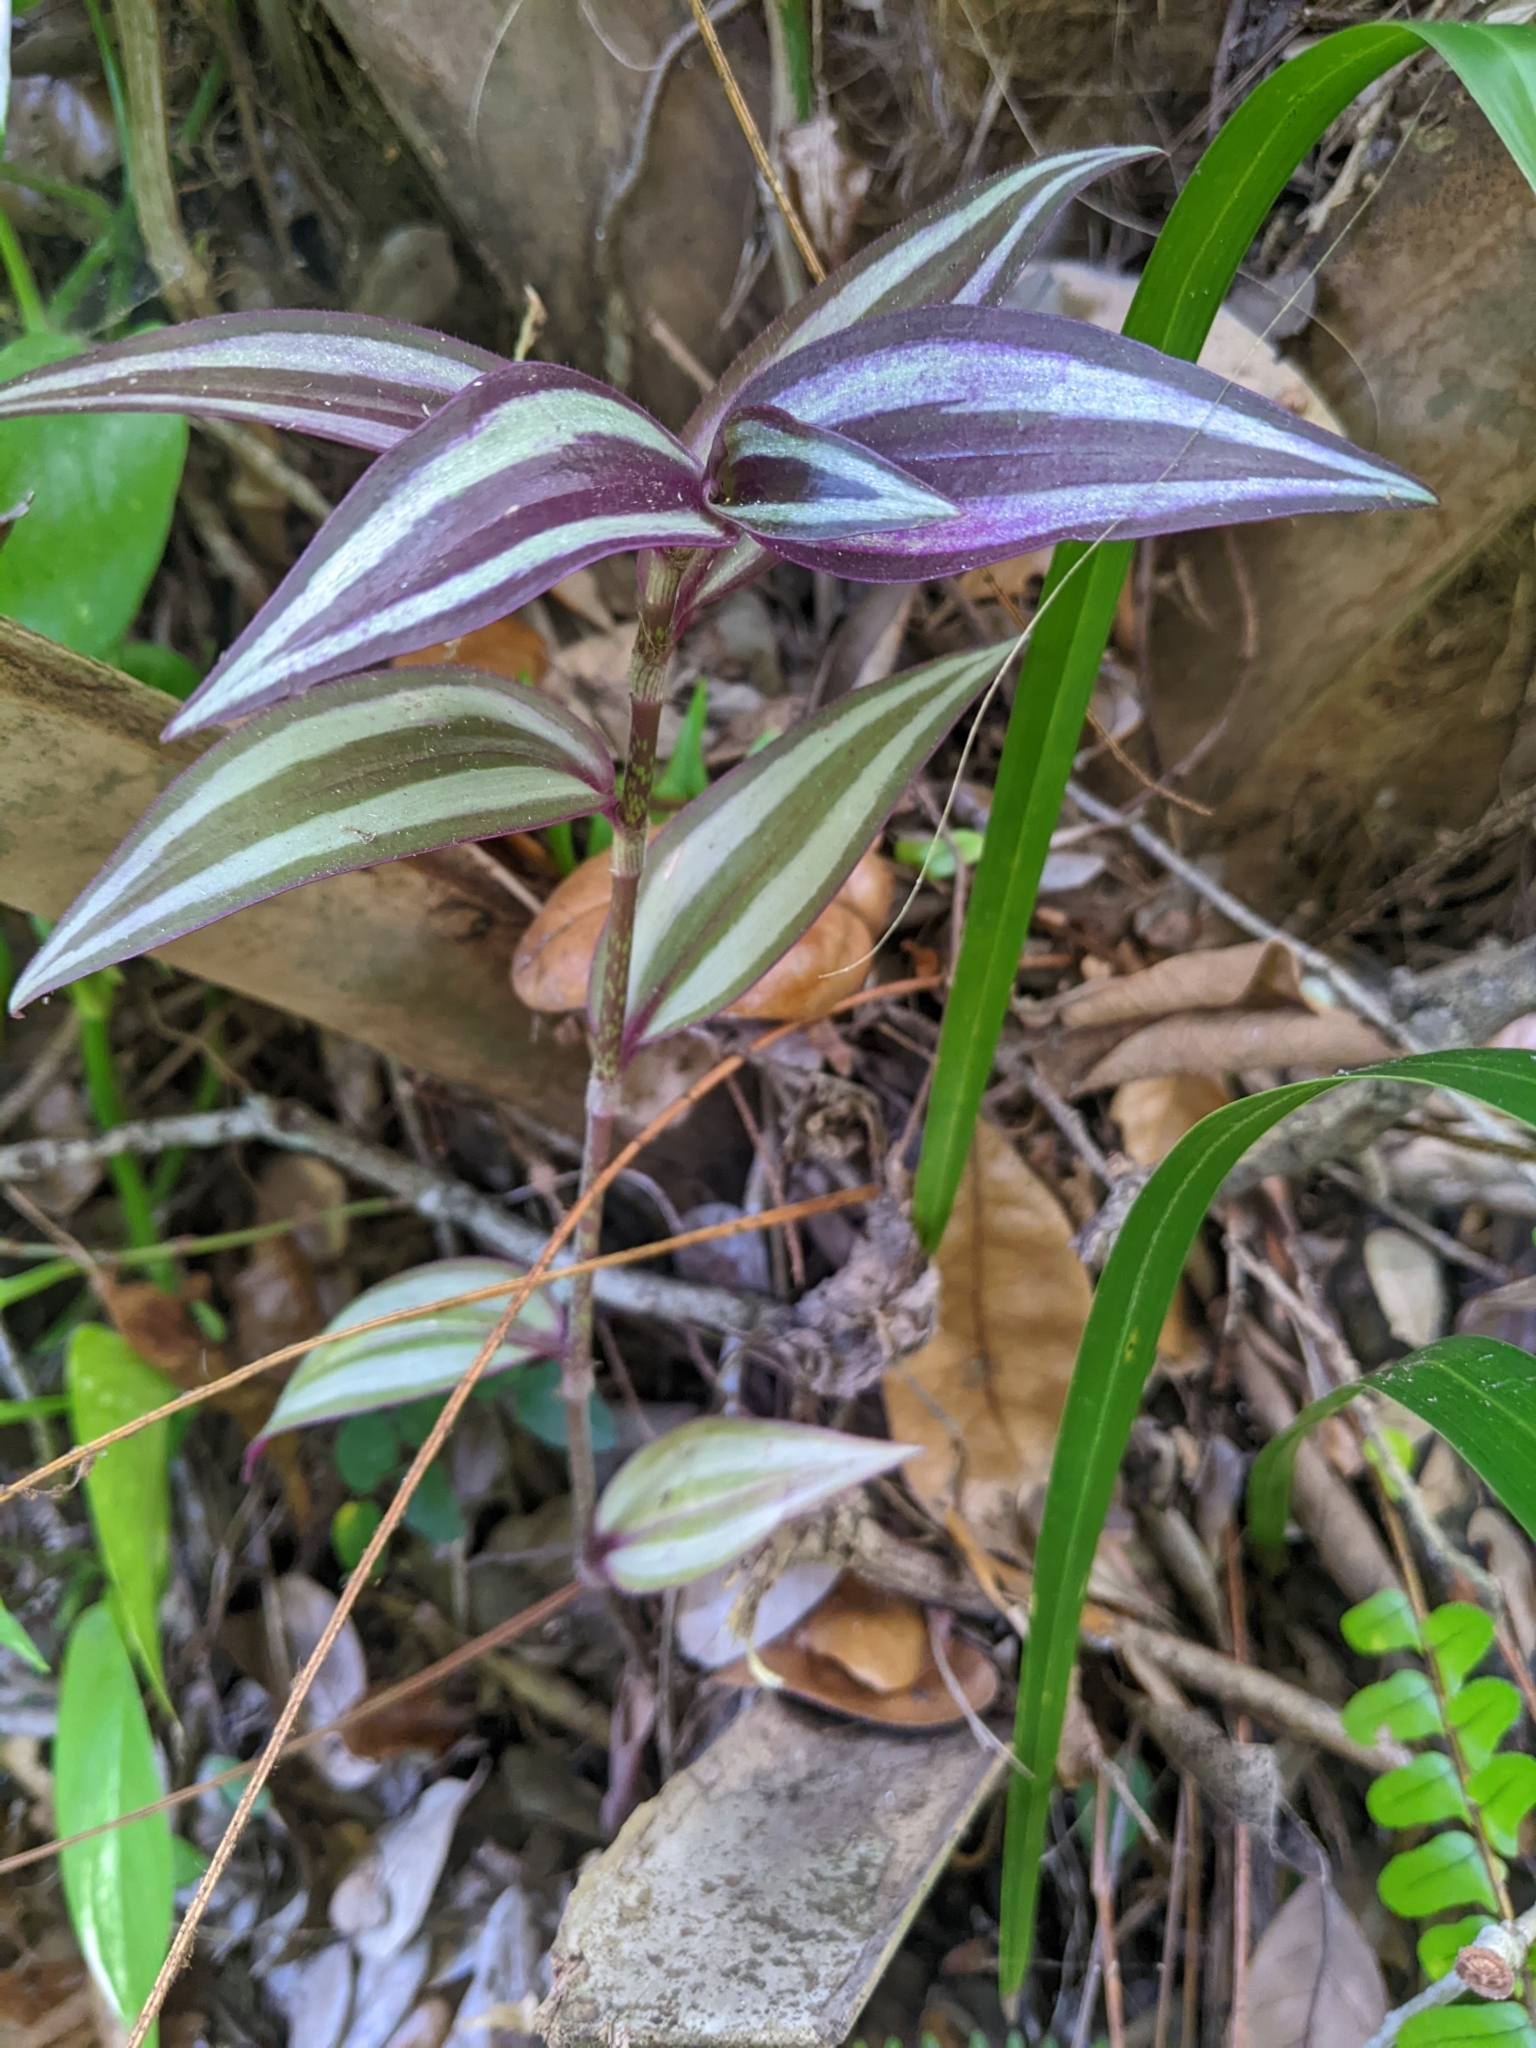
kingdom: Plantae
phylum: Tracheophyta
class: Liliopsida
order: Commelinales
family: Commelinaceae
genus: Tradescantia
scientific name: Tradescantia zebrina
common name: Inchplant
